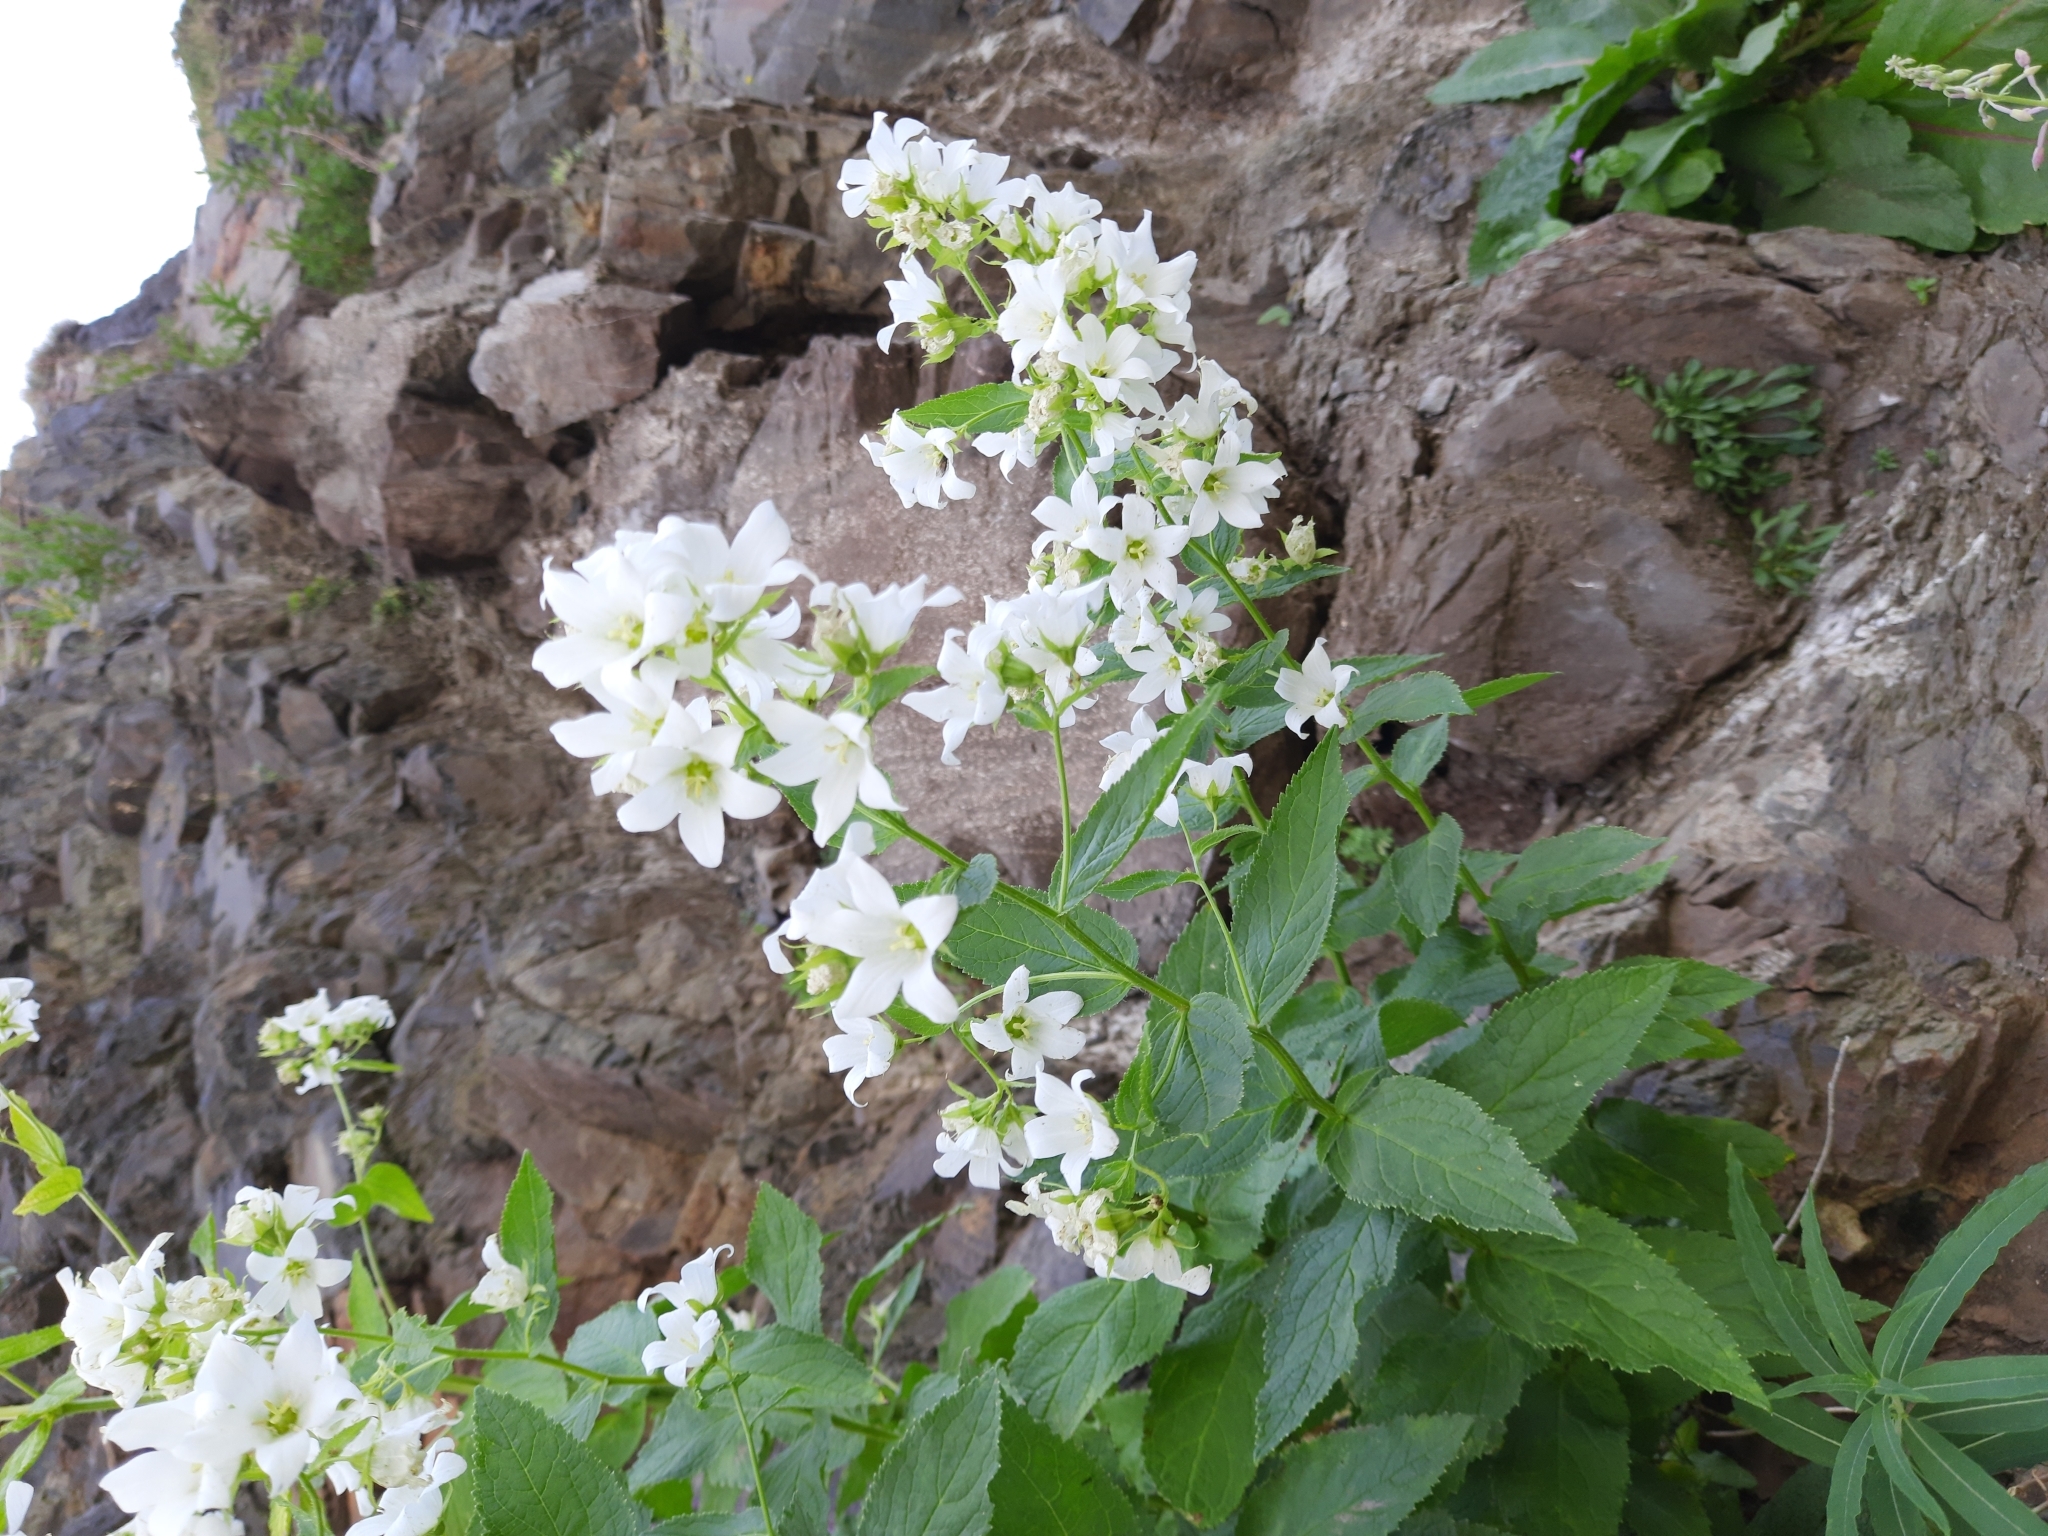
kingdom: Plantae
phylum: Tracheophyta
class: Magnoliopsida
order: Asterales
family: Campanulaceae
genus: Campanula
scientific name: Campanula lactiflora
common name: Milky bellflower
